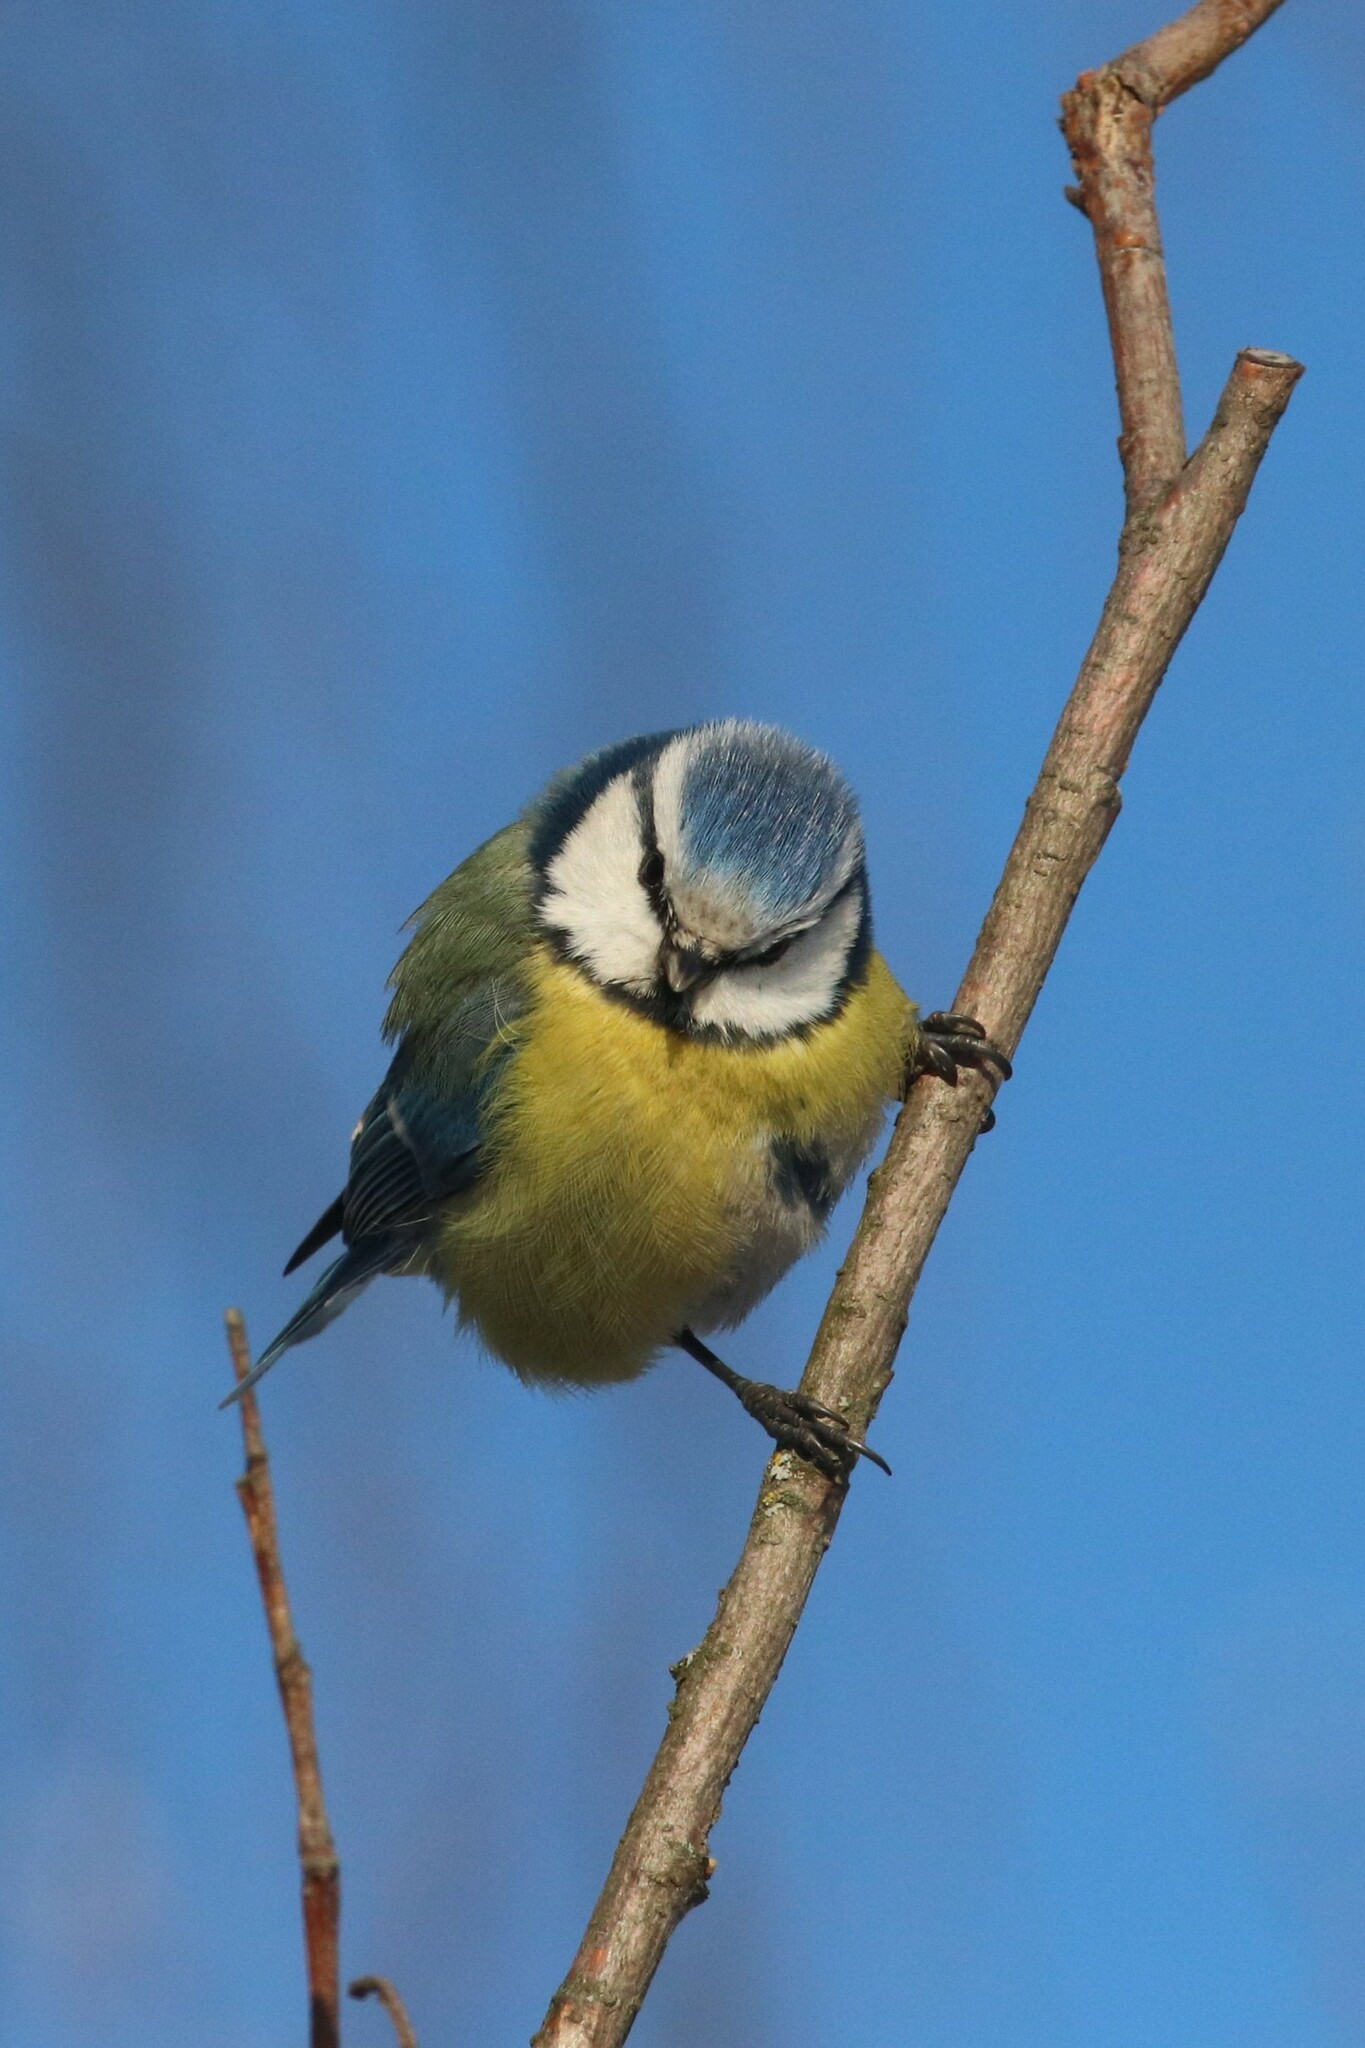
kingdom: Animalia
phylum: Chordata
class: Aves
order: Passeriformes
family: Paridae
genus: Cyanistes
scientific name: Cyanistes caeruleus
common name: Eurasian blue tit
